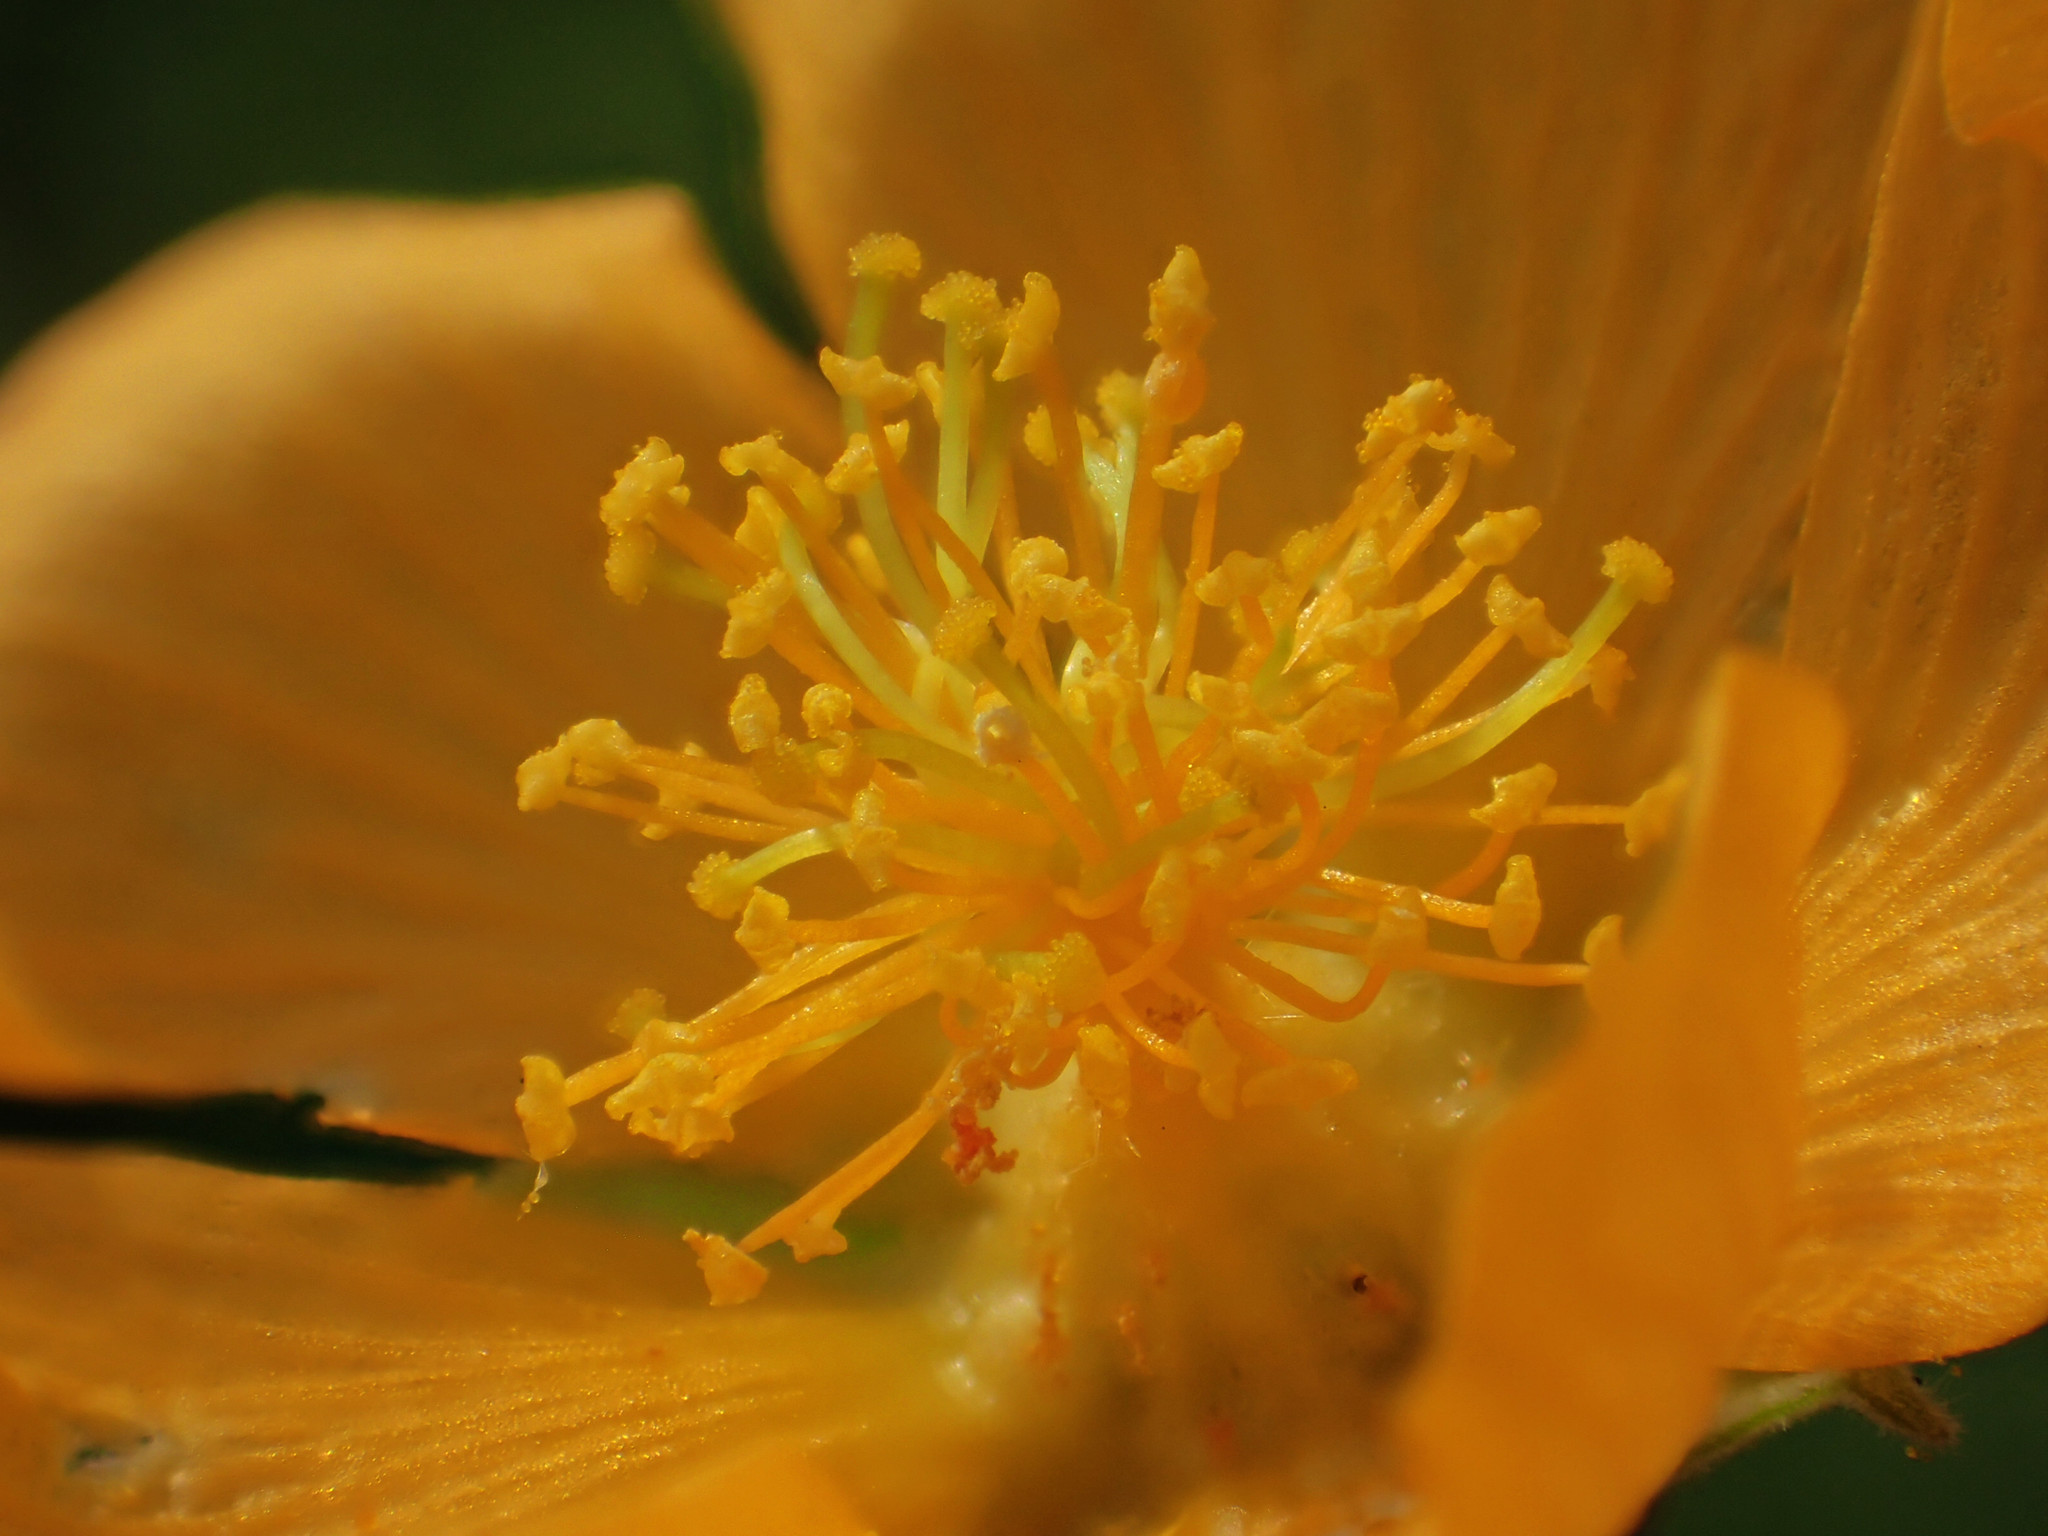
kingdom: Plantae
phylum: Tracheophyta
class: Magnoliopsida
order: Malvales
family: Malvaceae
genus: Abutilon
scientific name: Abutilon indicum
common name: Indian abutilon
